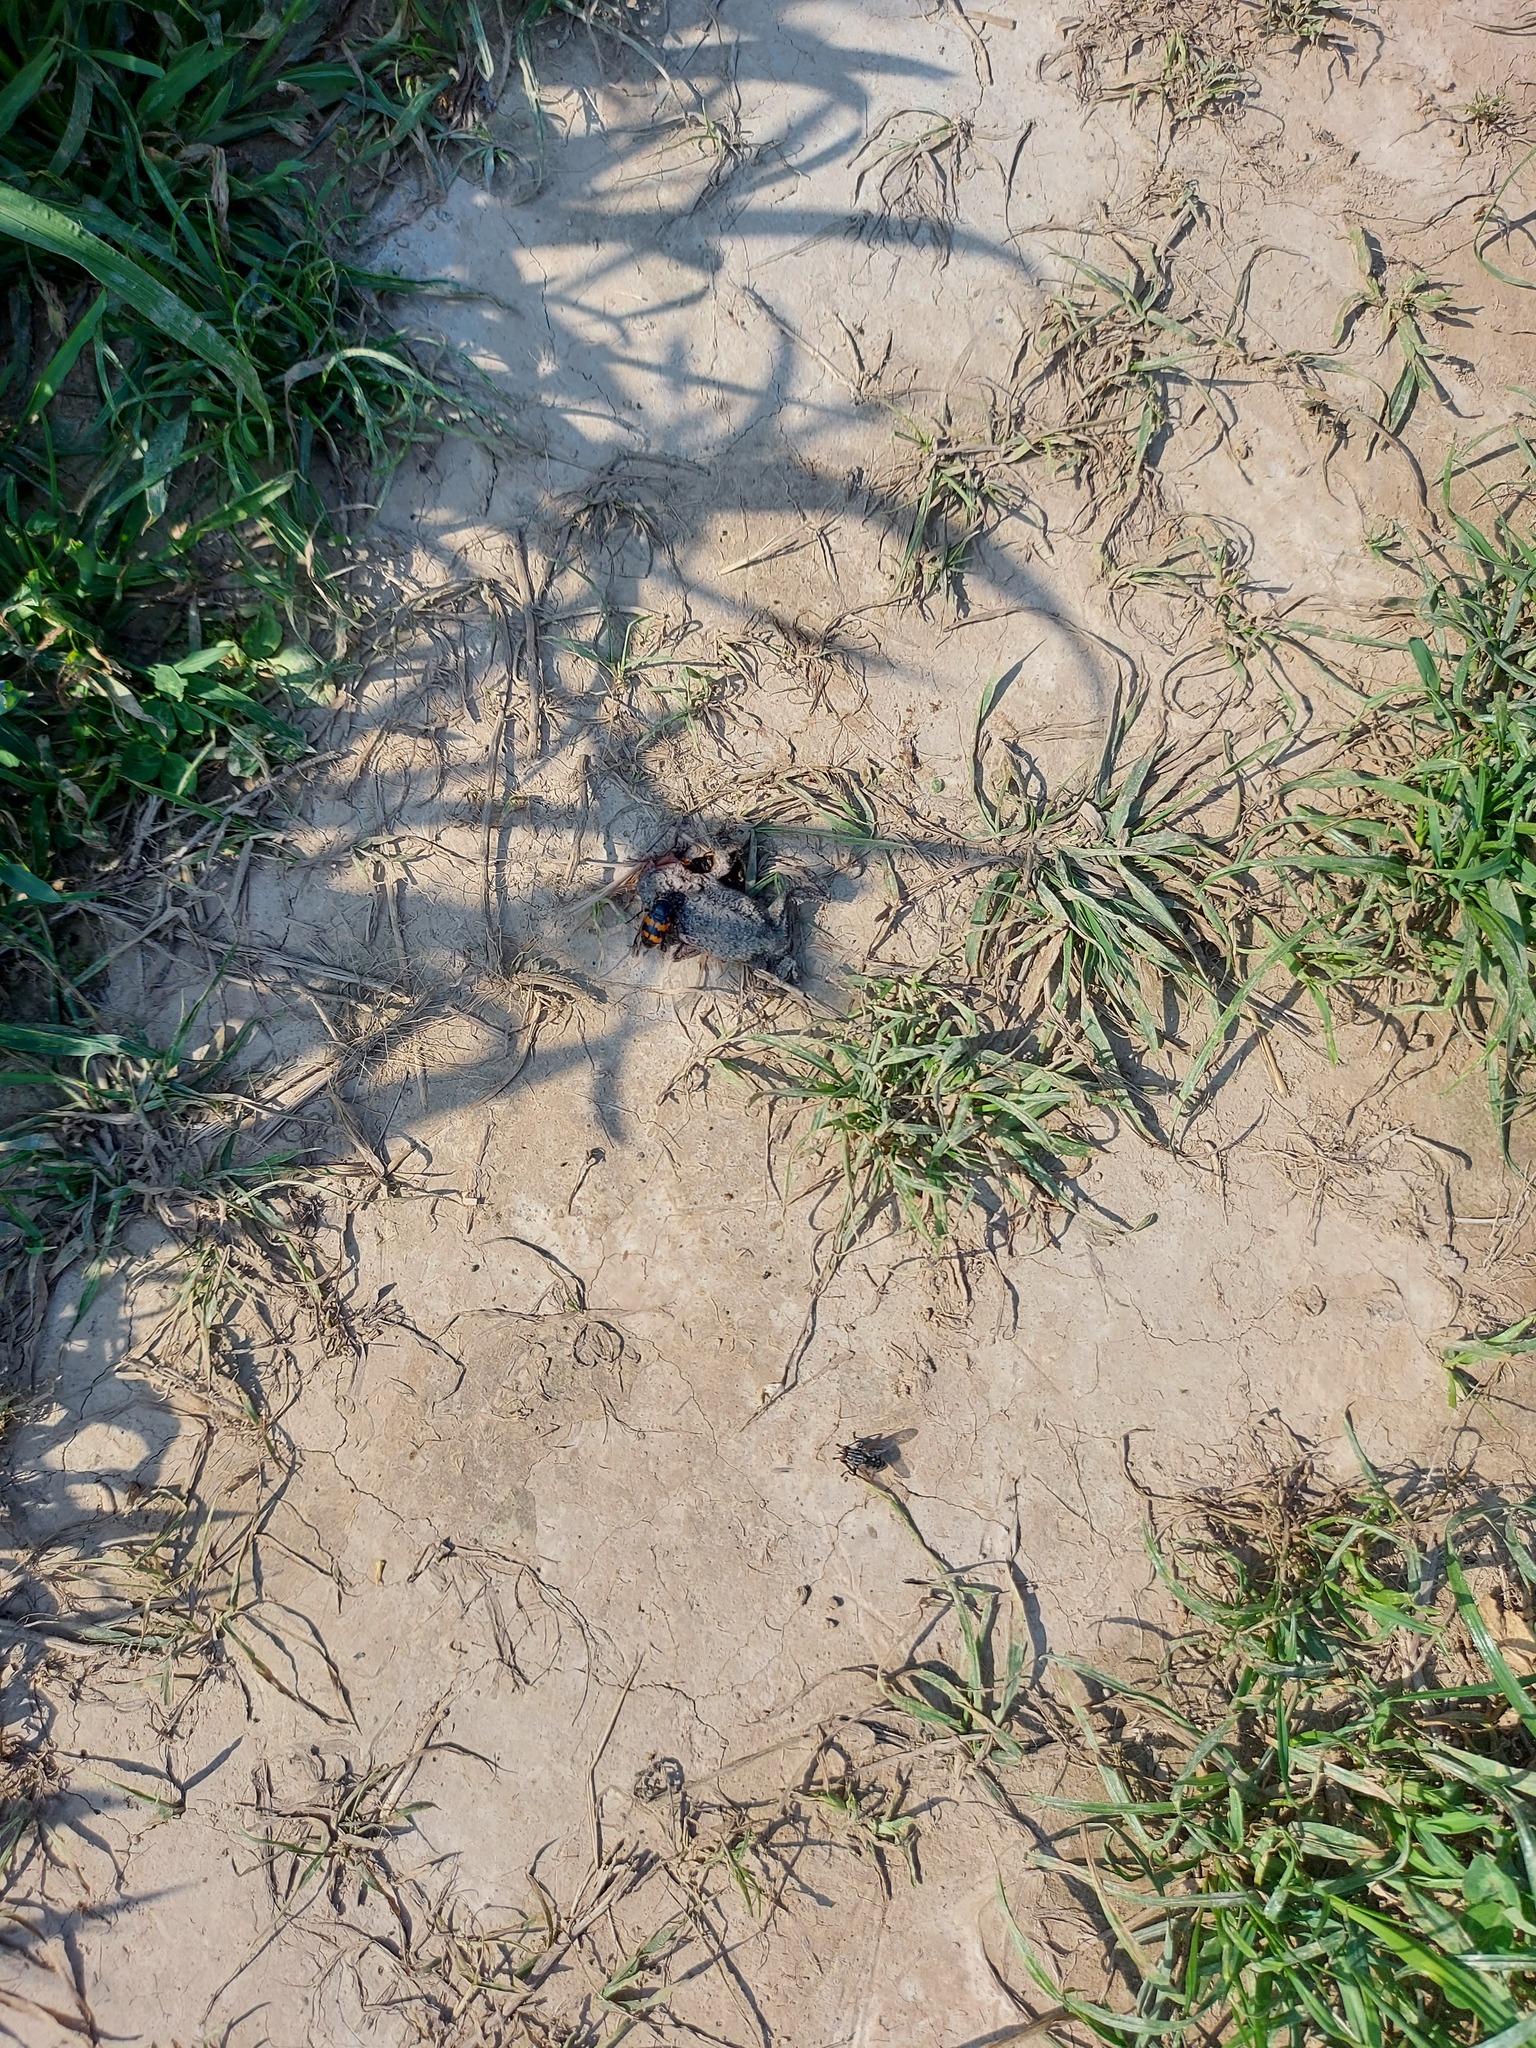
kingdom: Animalia
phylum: Arthropoda
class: Insecta
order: Coleoptera
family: Staphylinidae
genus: Nicrophorus
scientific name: Nicrophorus vespillo
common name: Common burying beetle
